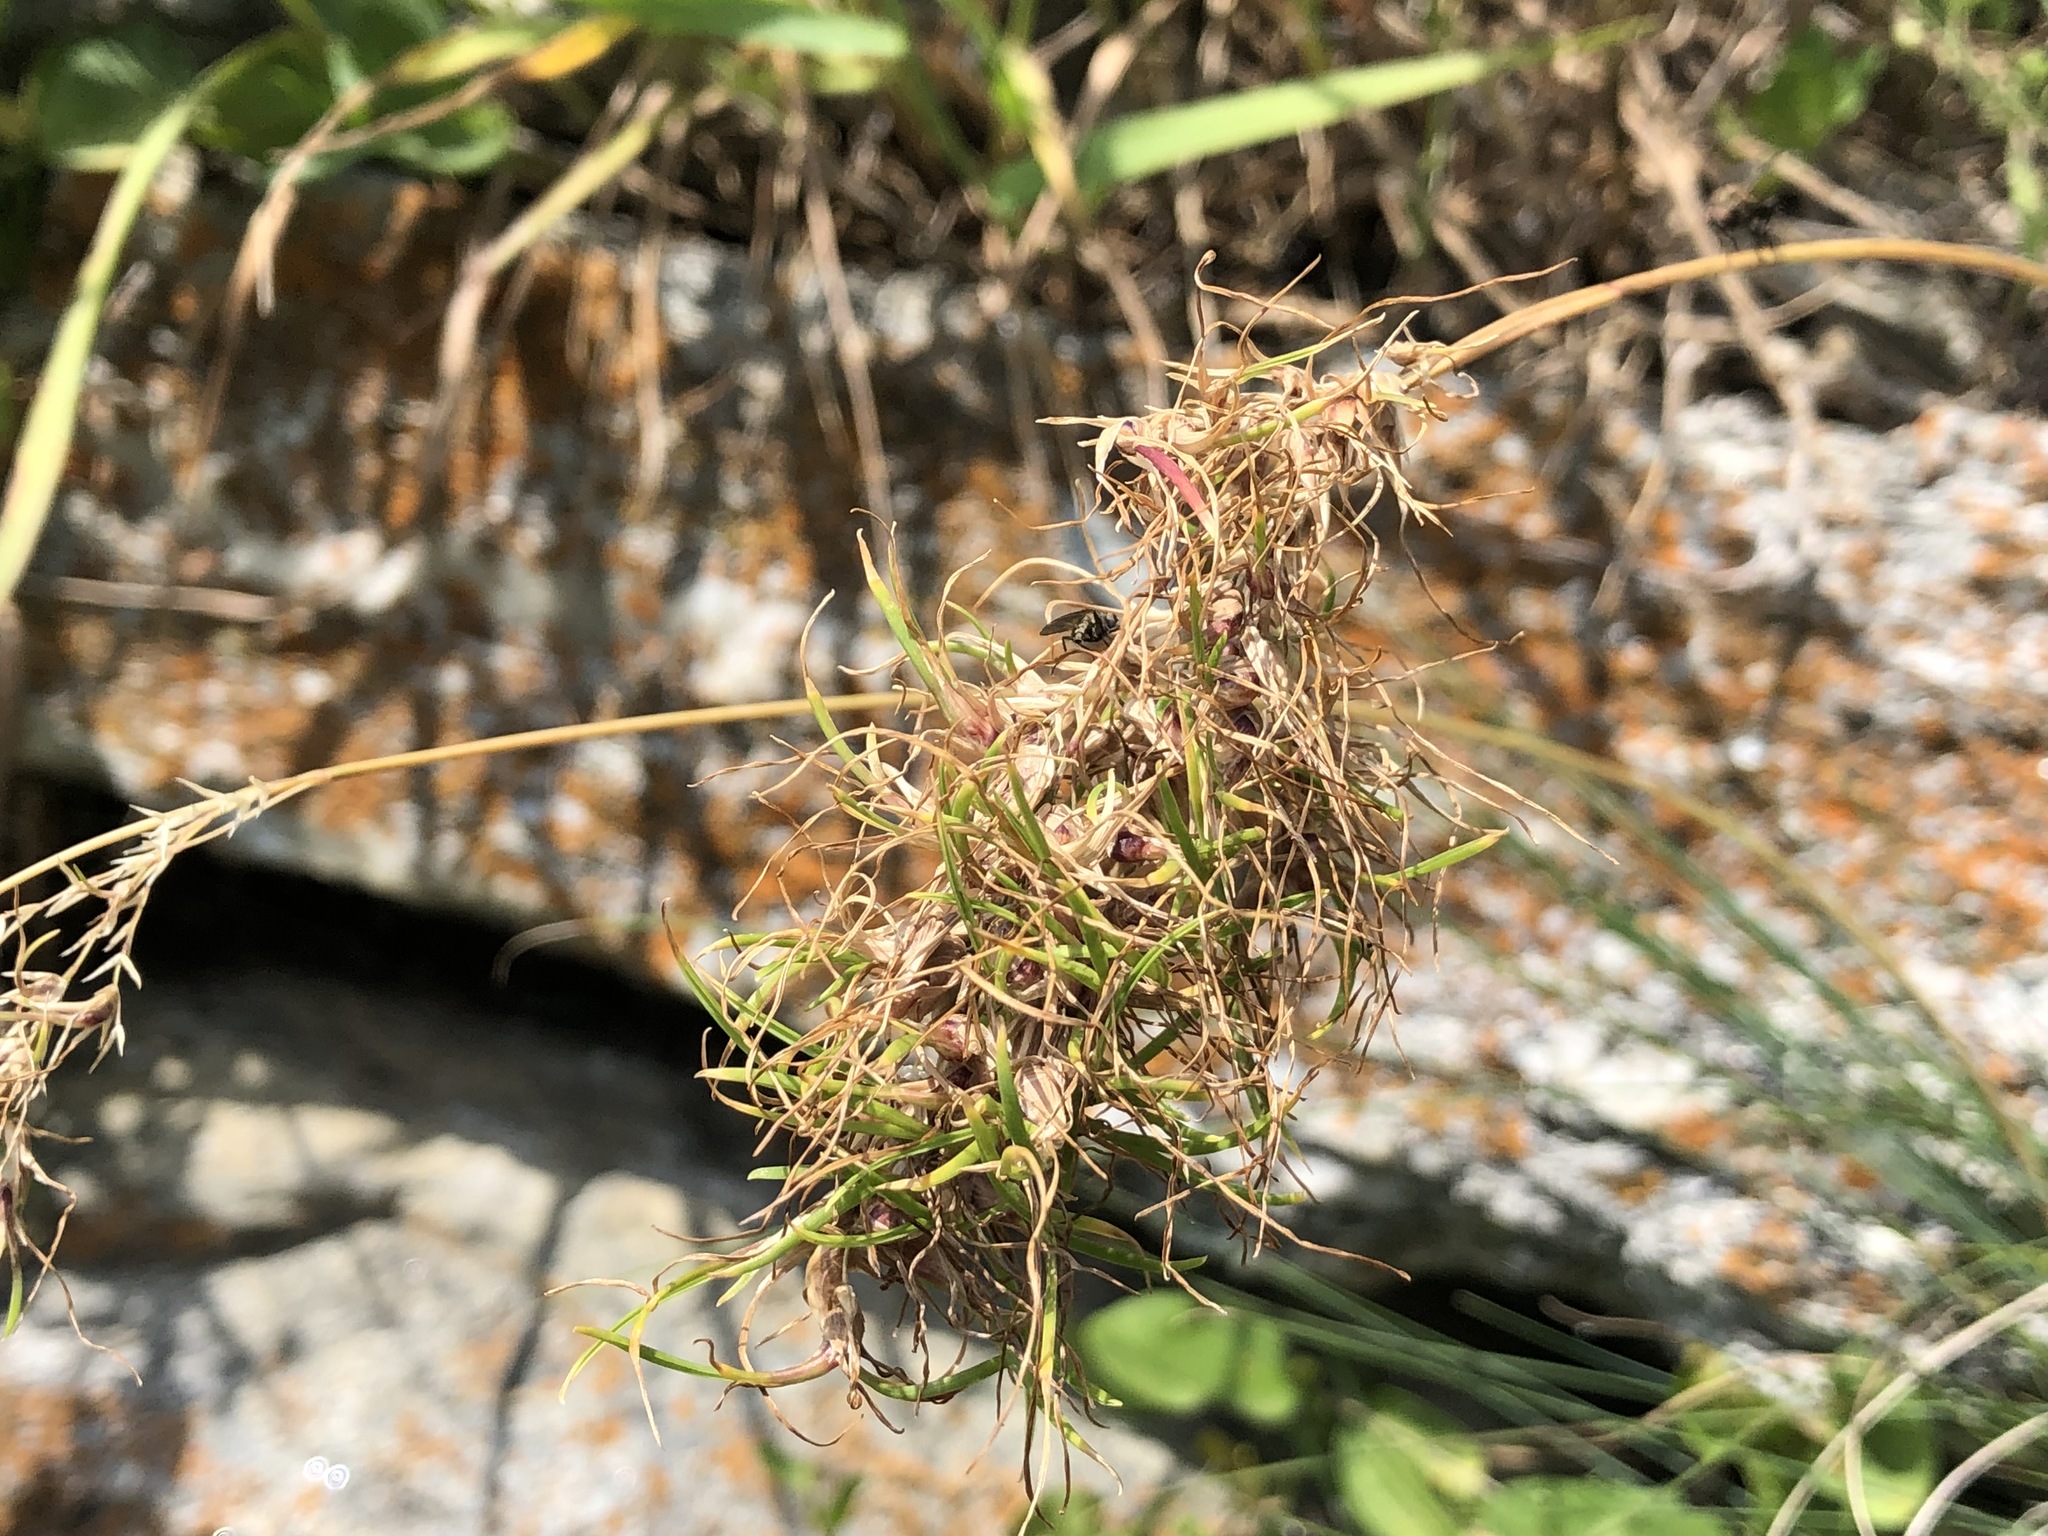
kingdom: Plantae
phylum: Tracheophyta
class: Liliopsida
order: Poales
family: Poaceae
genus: Poa
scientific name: Poa bulbosa
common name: Bulbous bluegrass
